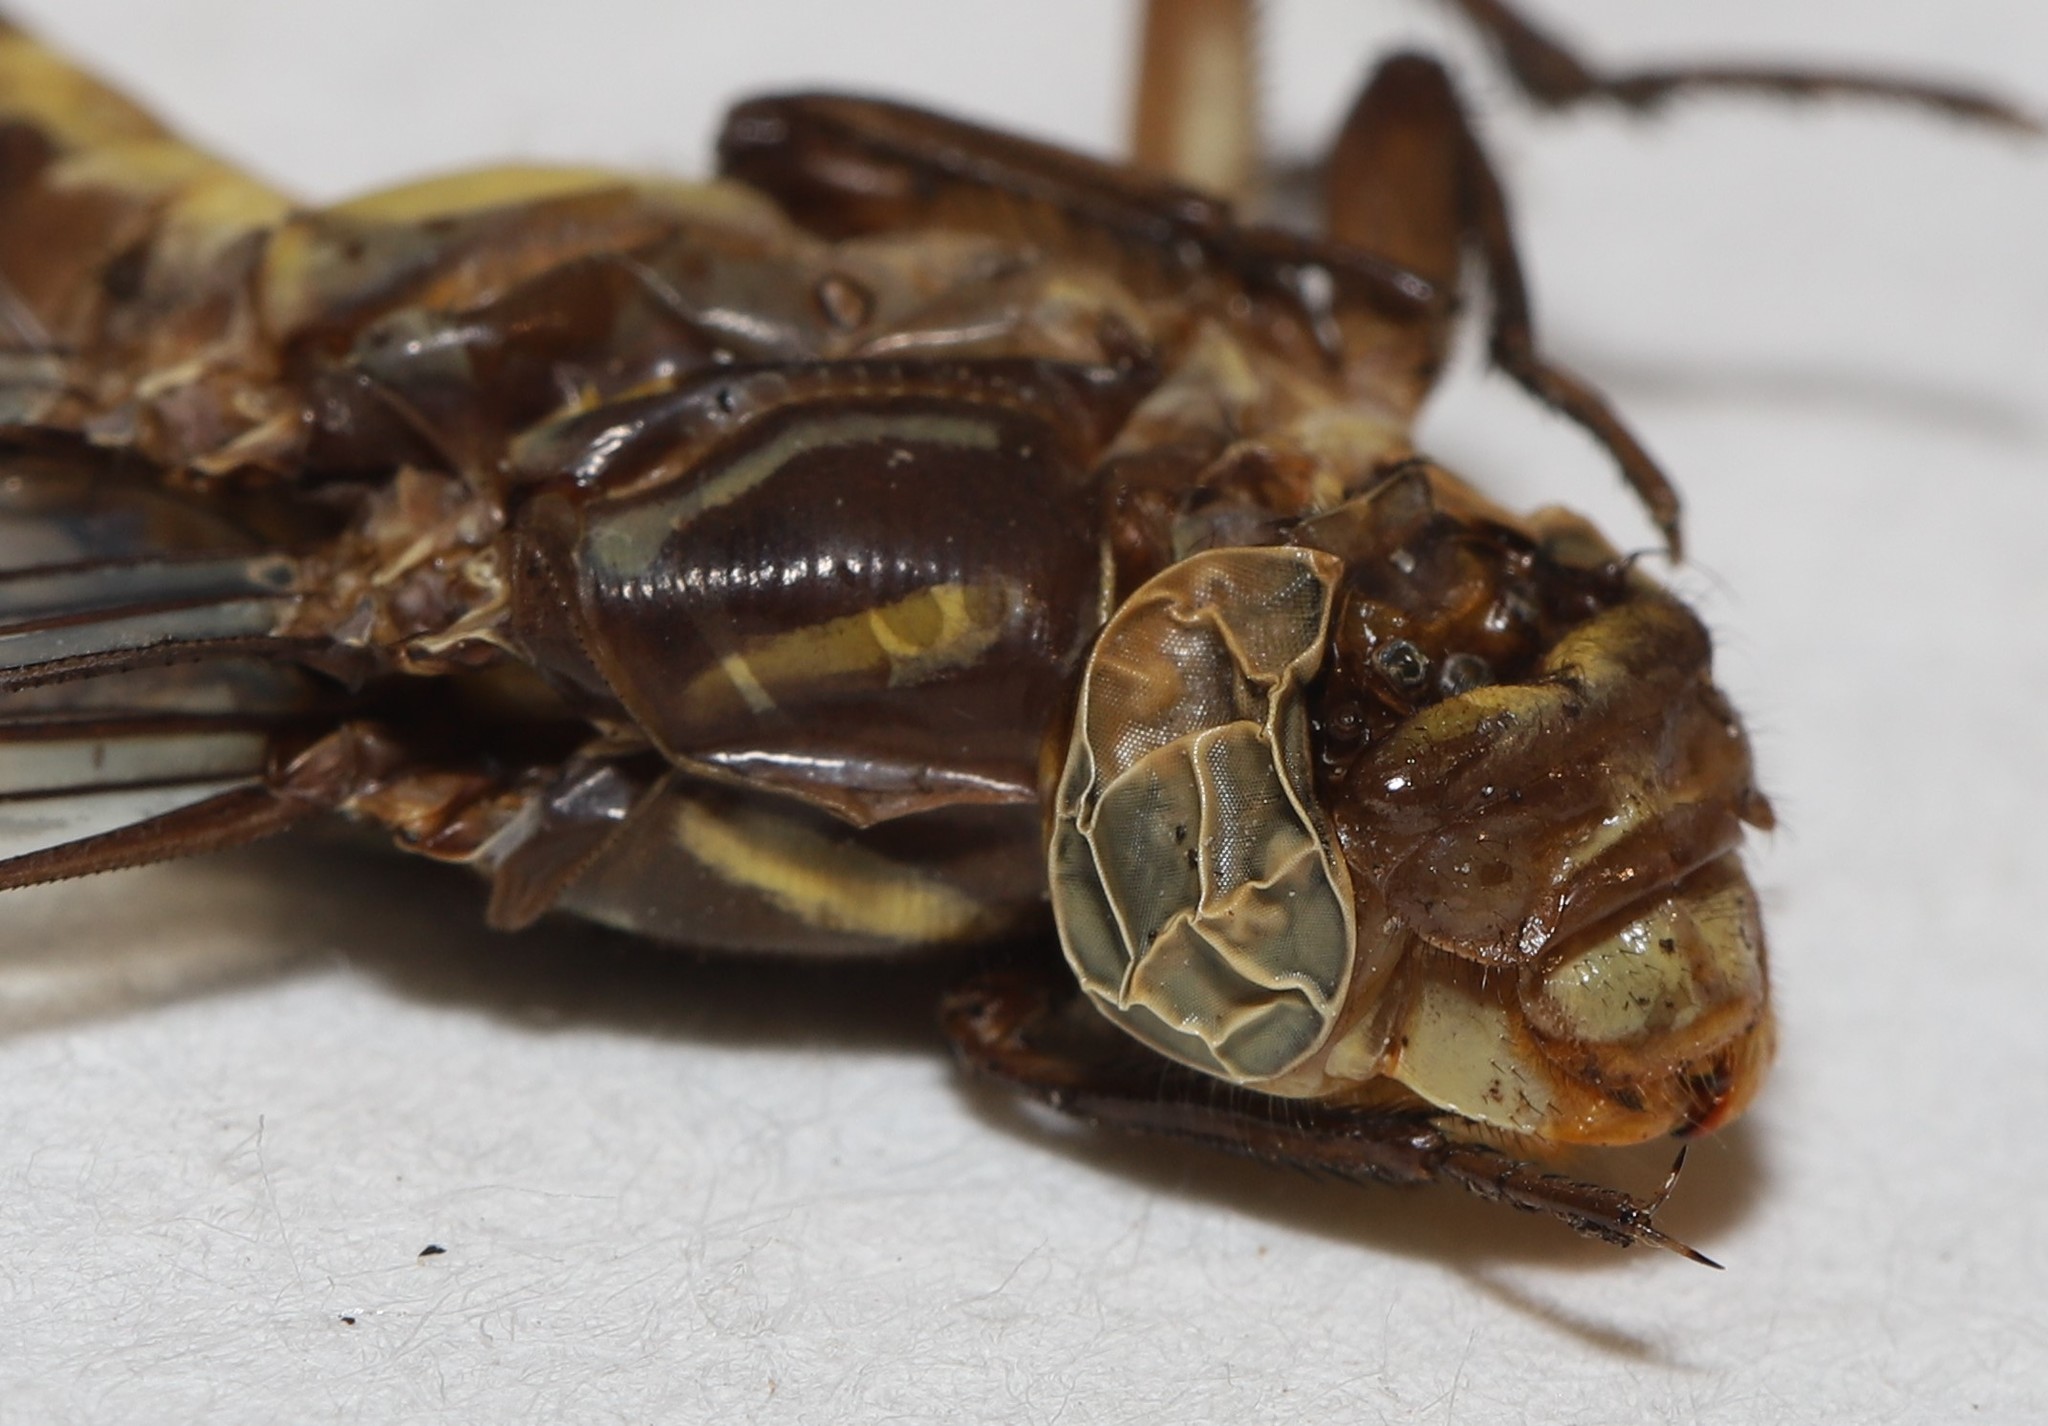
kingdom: Animalia
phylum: Arthropoda
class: Insecta
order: Odonata
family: Gomphidae
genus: Stylurus
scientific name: Stylurus laurae
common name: Laura's clubtail
